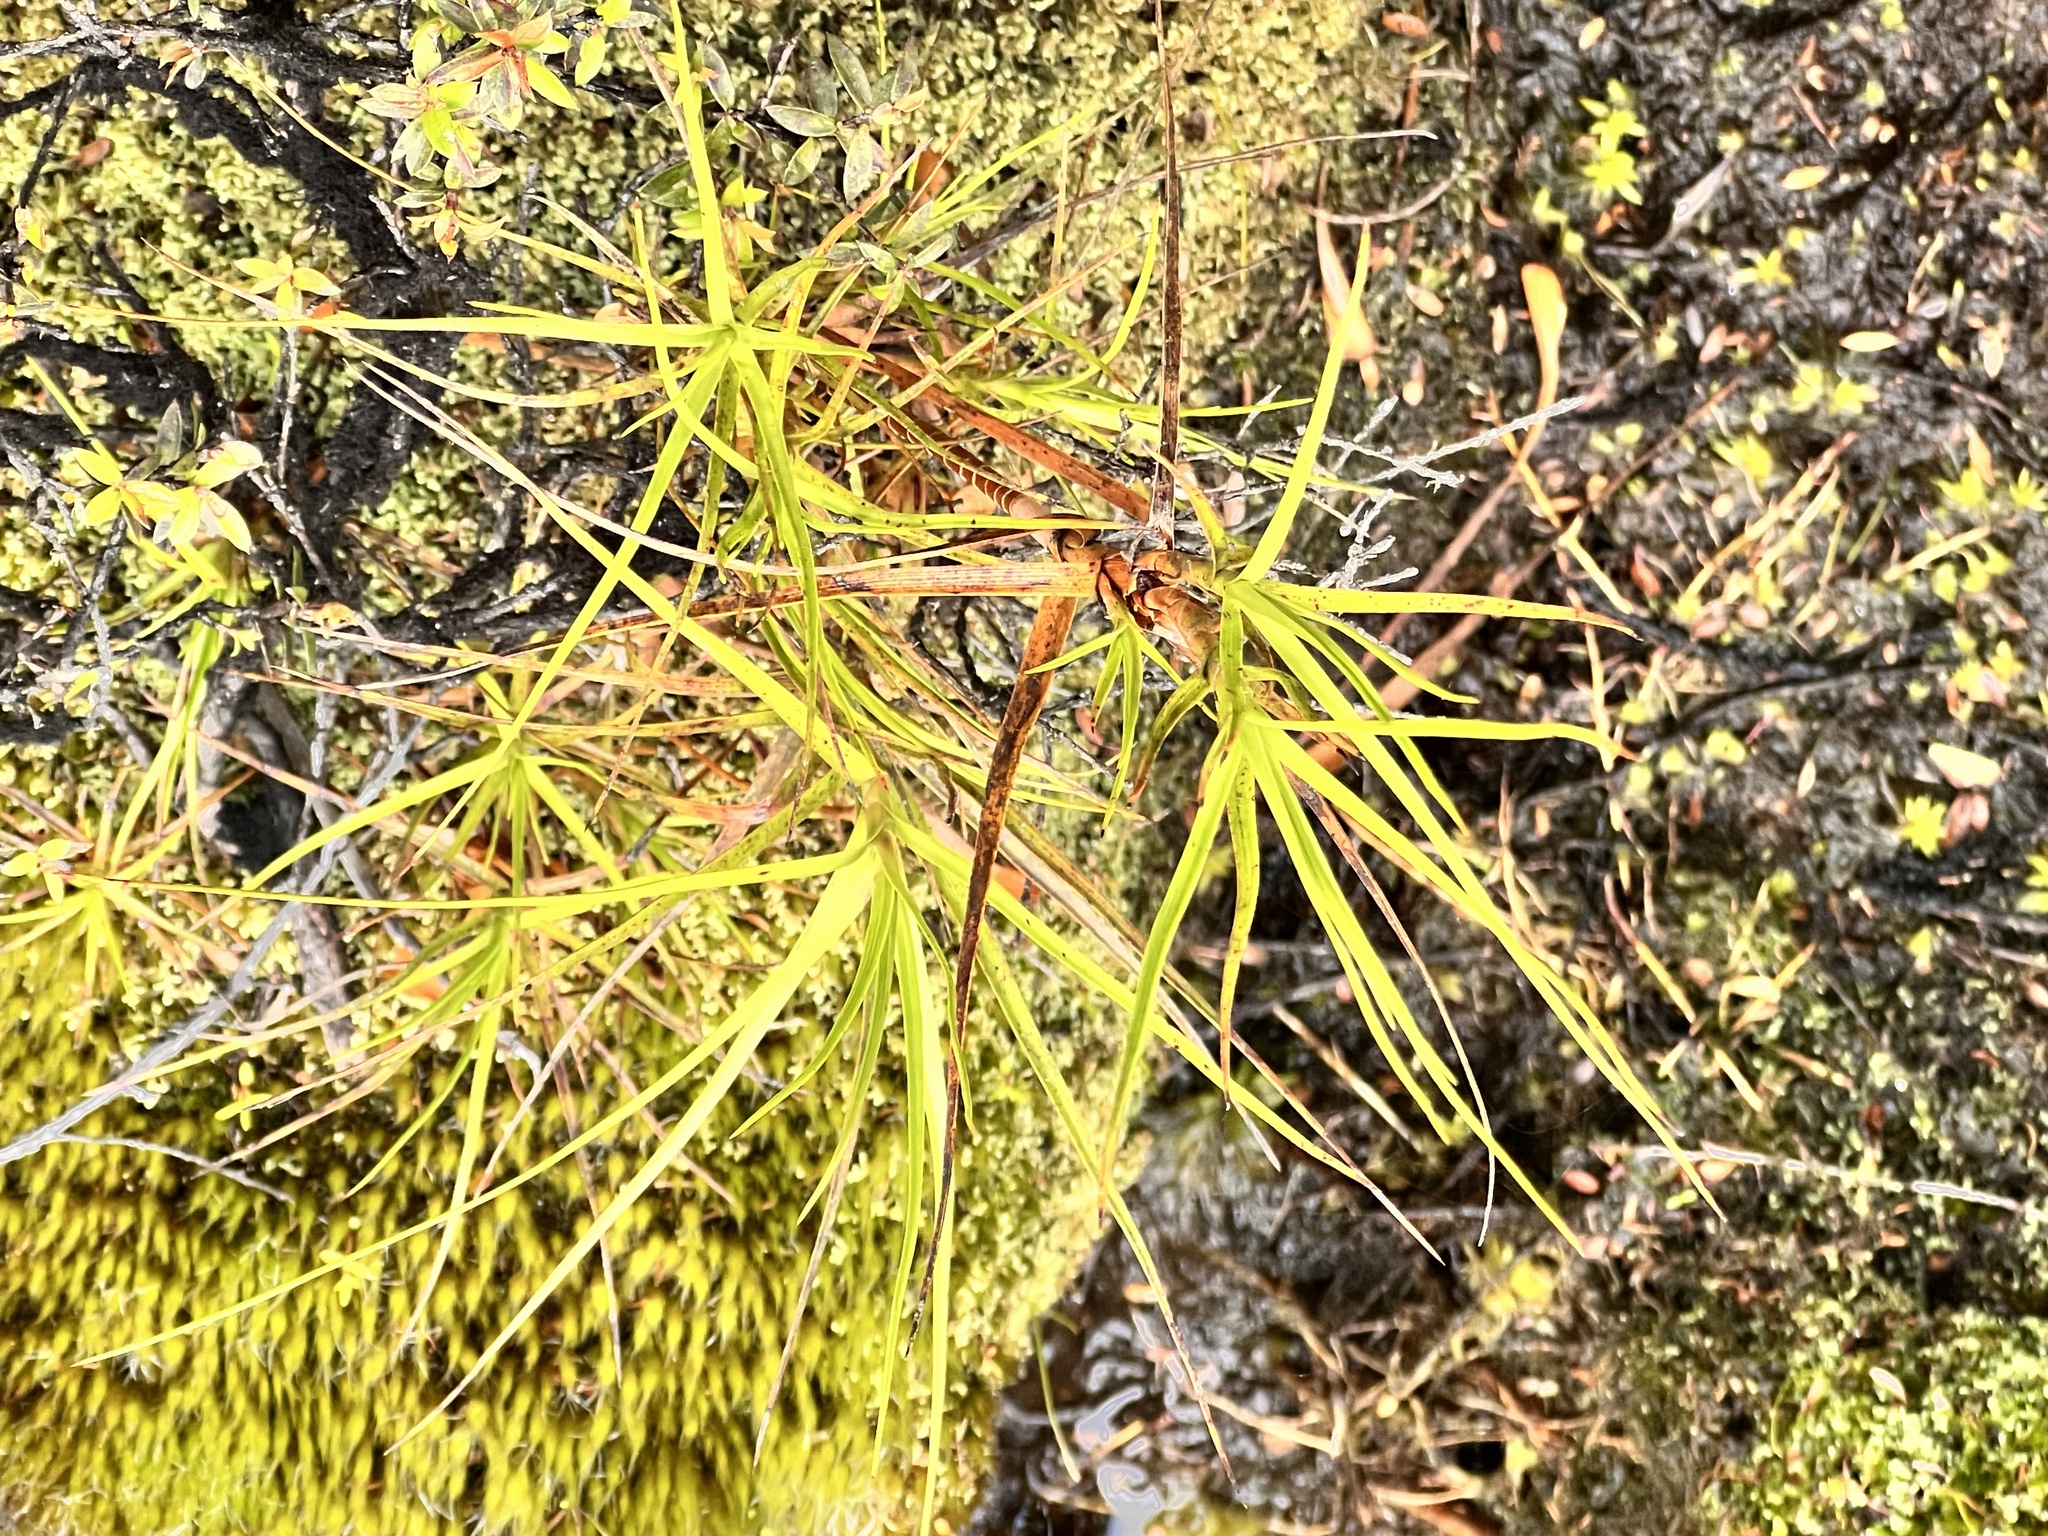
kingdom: Plantae
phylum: Tracheophyta
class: Magnoliopsida
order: Ericales
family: Ericaceae
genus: Dracophyllum
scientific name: Dracophyllum longifolium
